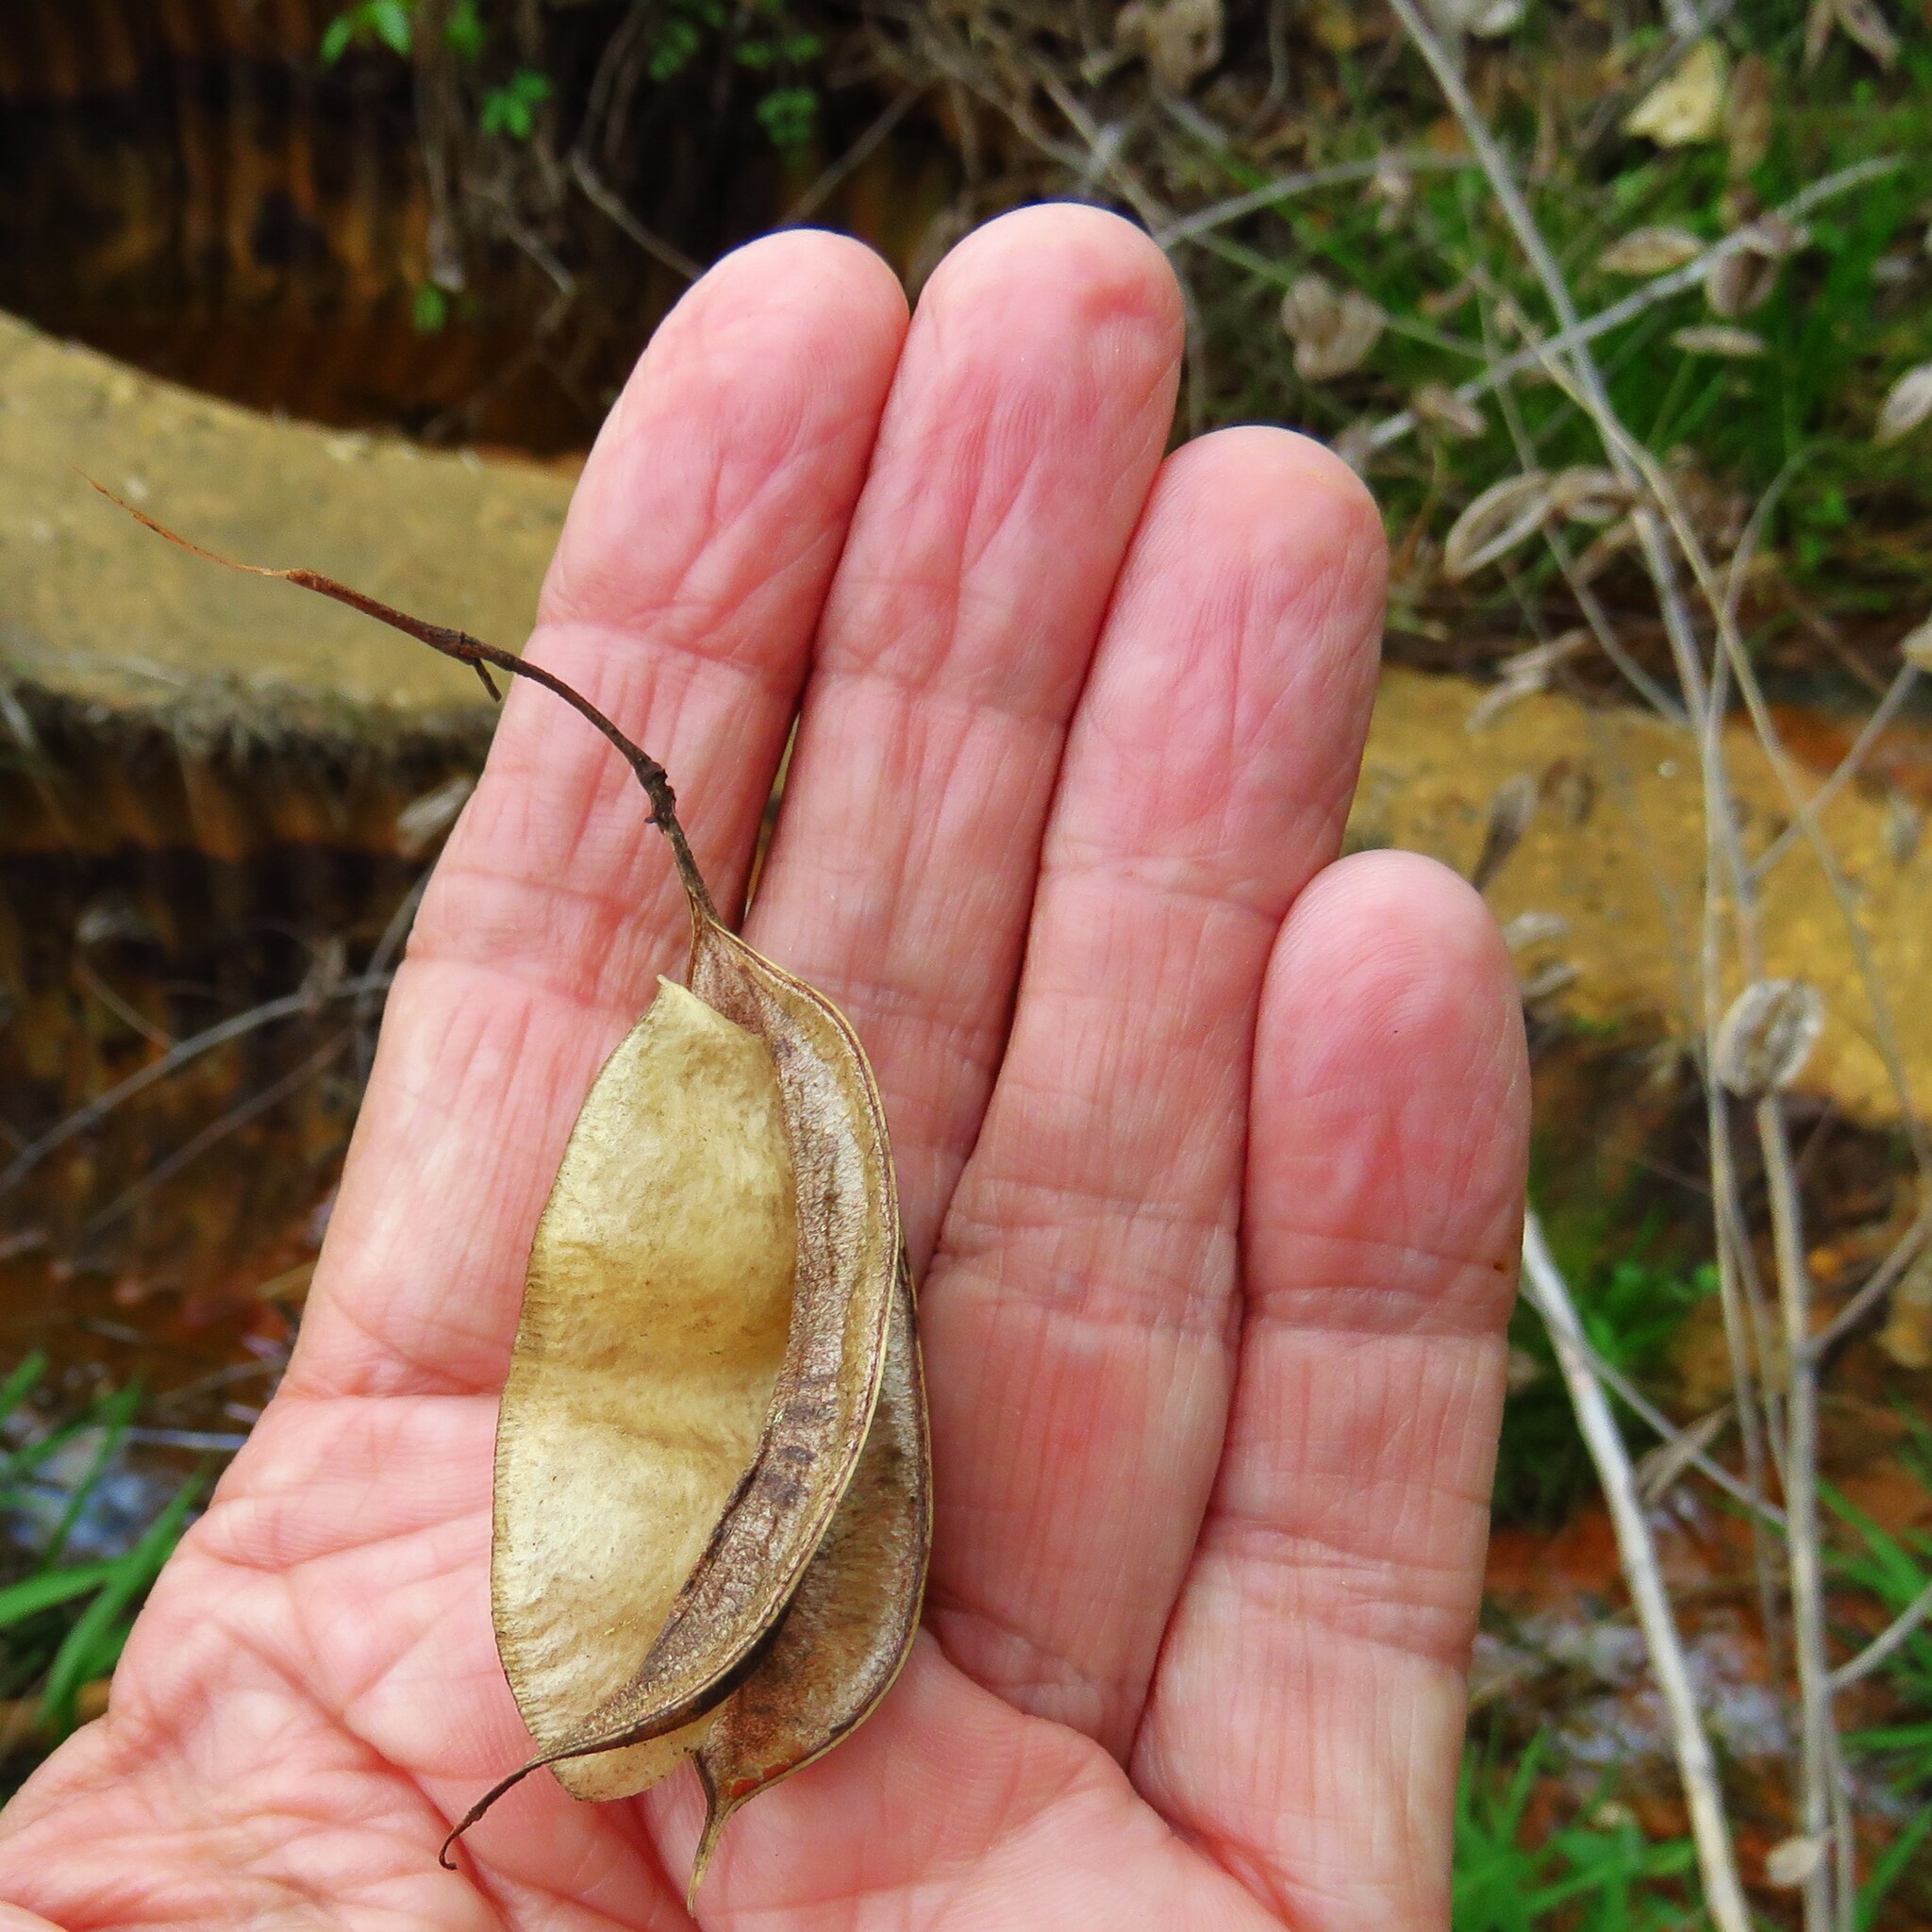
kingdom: Plantae
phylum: Tracheophyta
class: Magnoliopsida
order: Fabales
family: Fabaceae
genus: Sesbania
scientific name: Sesbania vesicaria
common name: Bagpod
